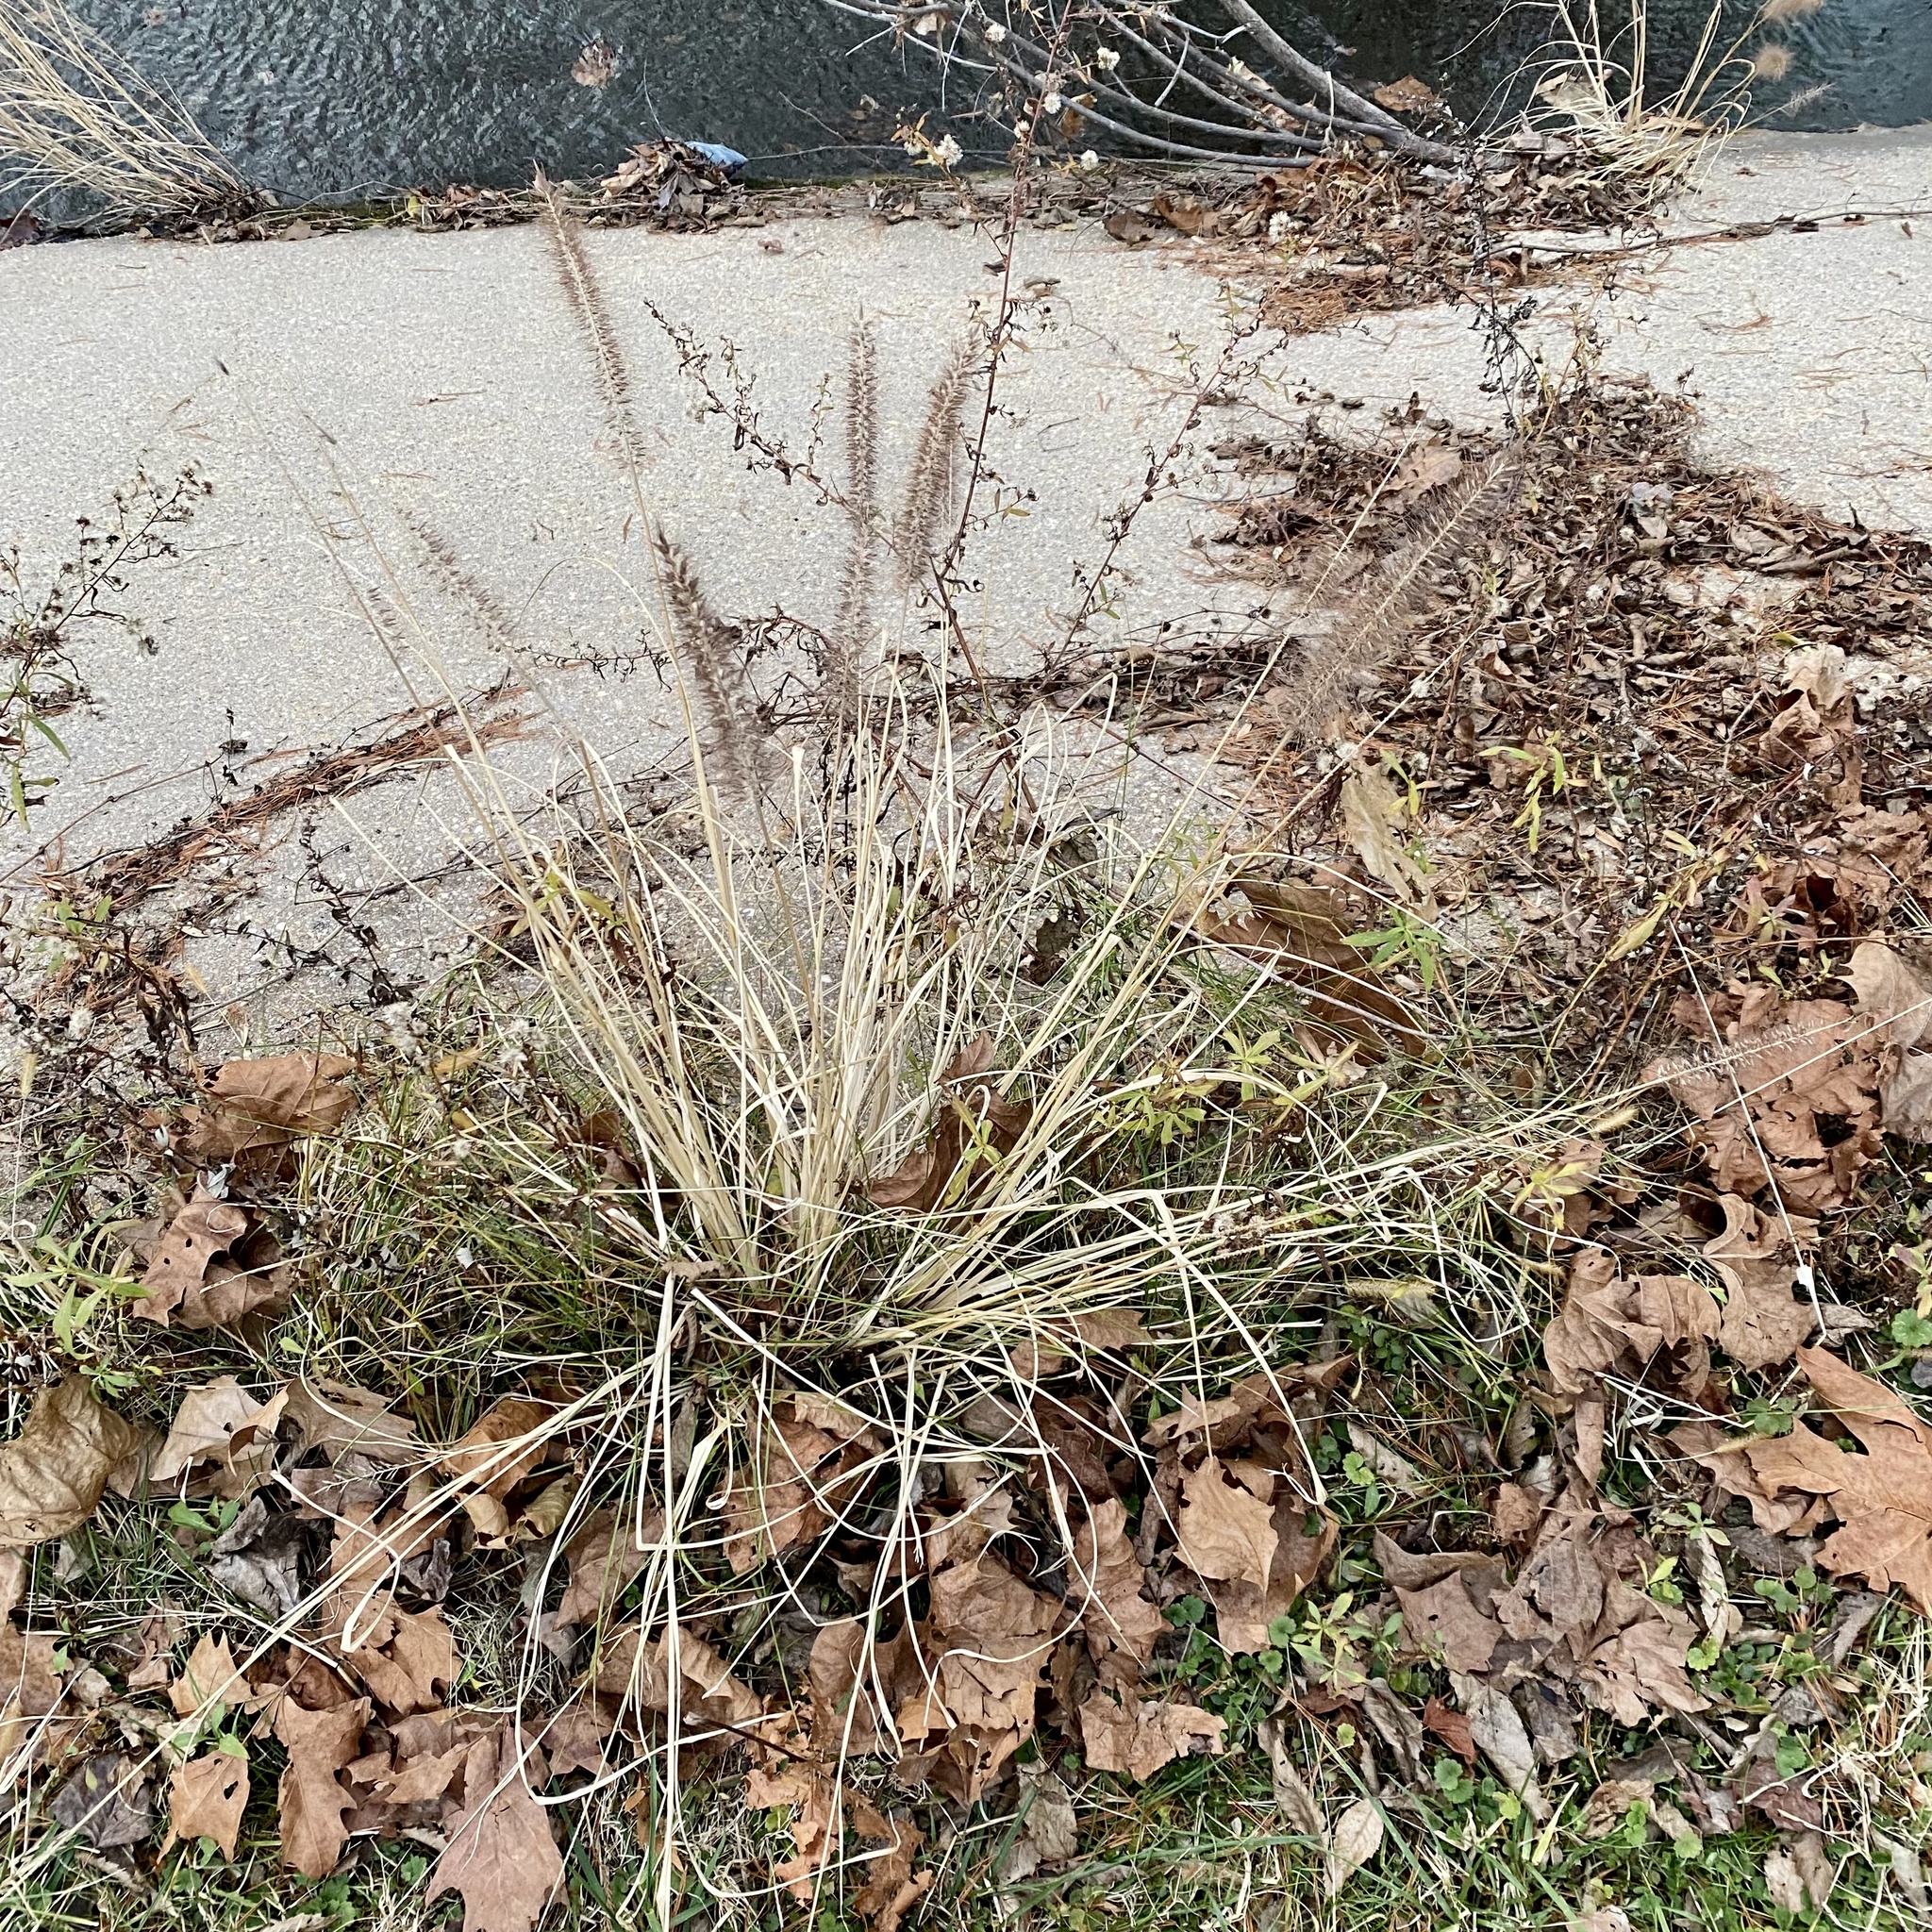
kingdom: Plantae
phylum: Tracheophyta
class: Liliopsida
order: Poales
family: Poaceae
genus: Cenchrus
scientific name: Cenchrus alopecuroides
